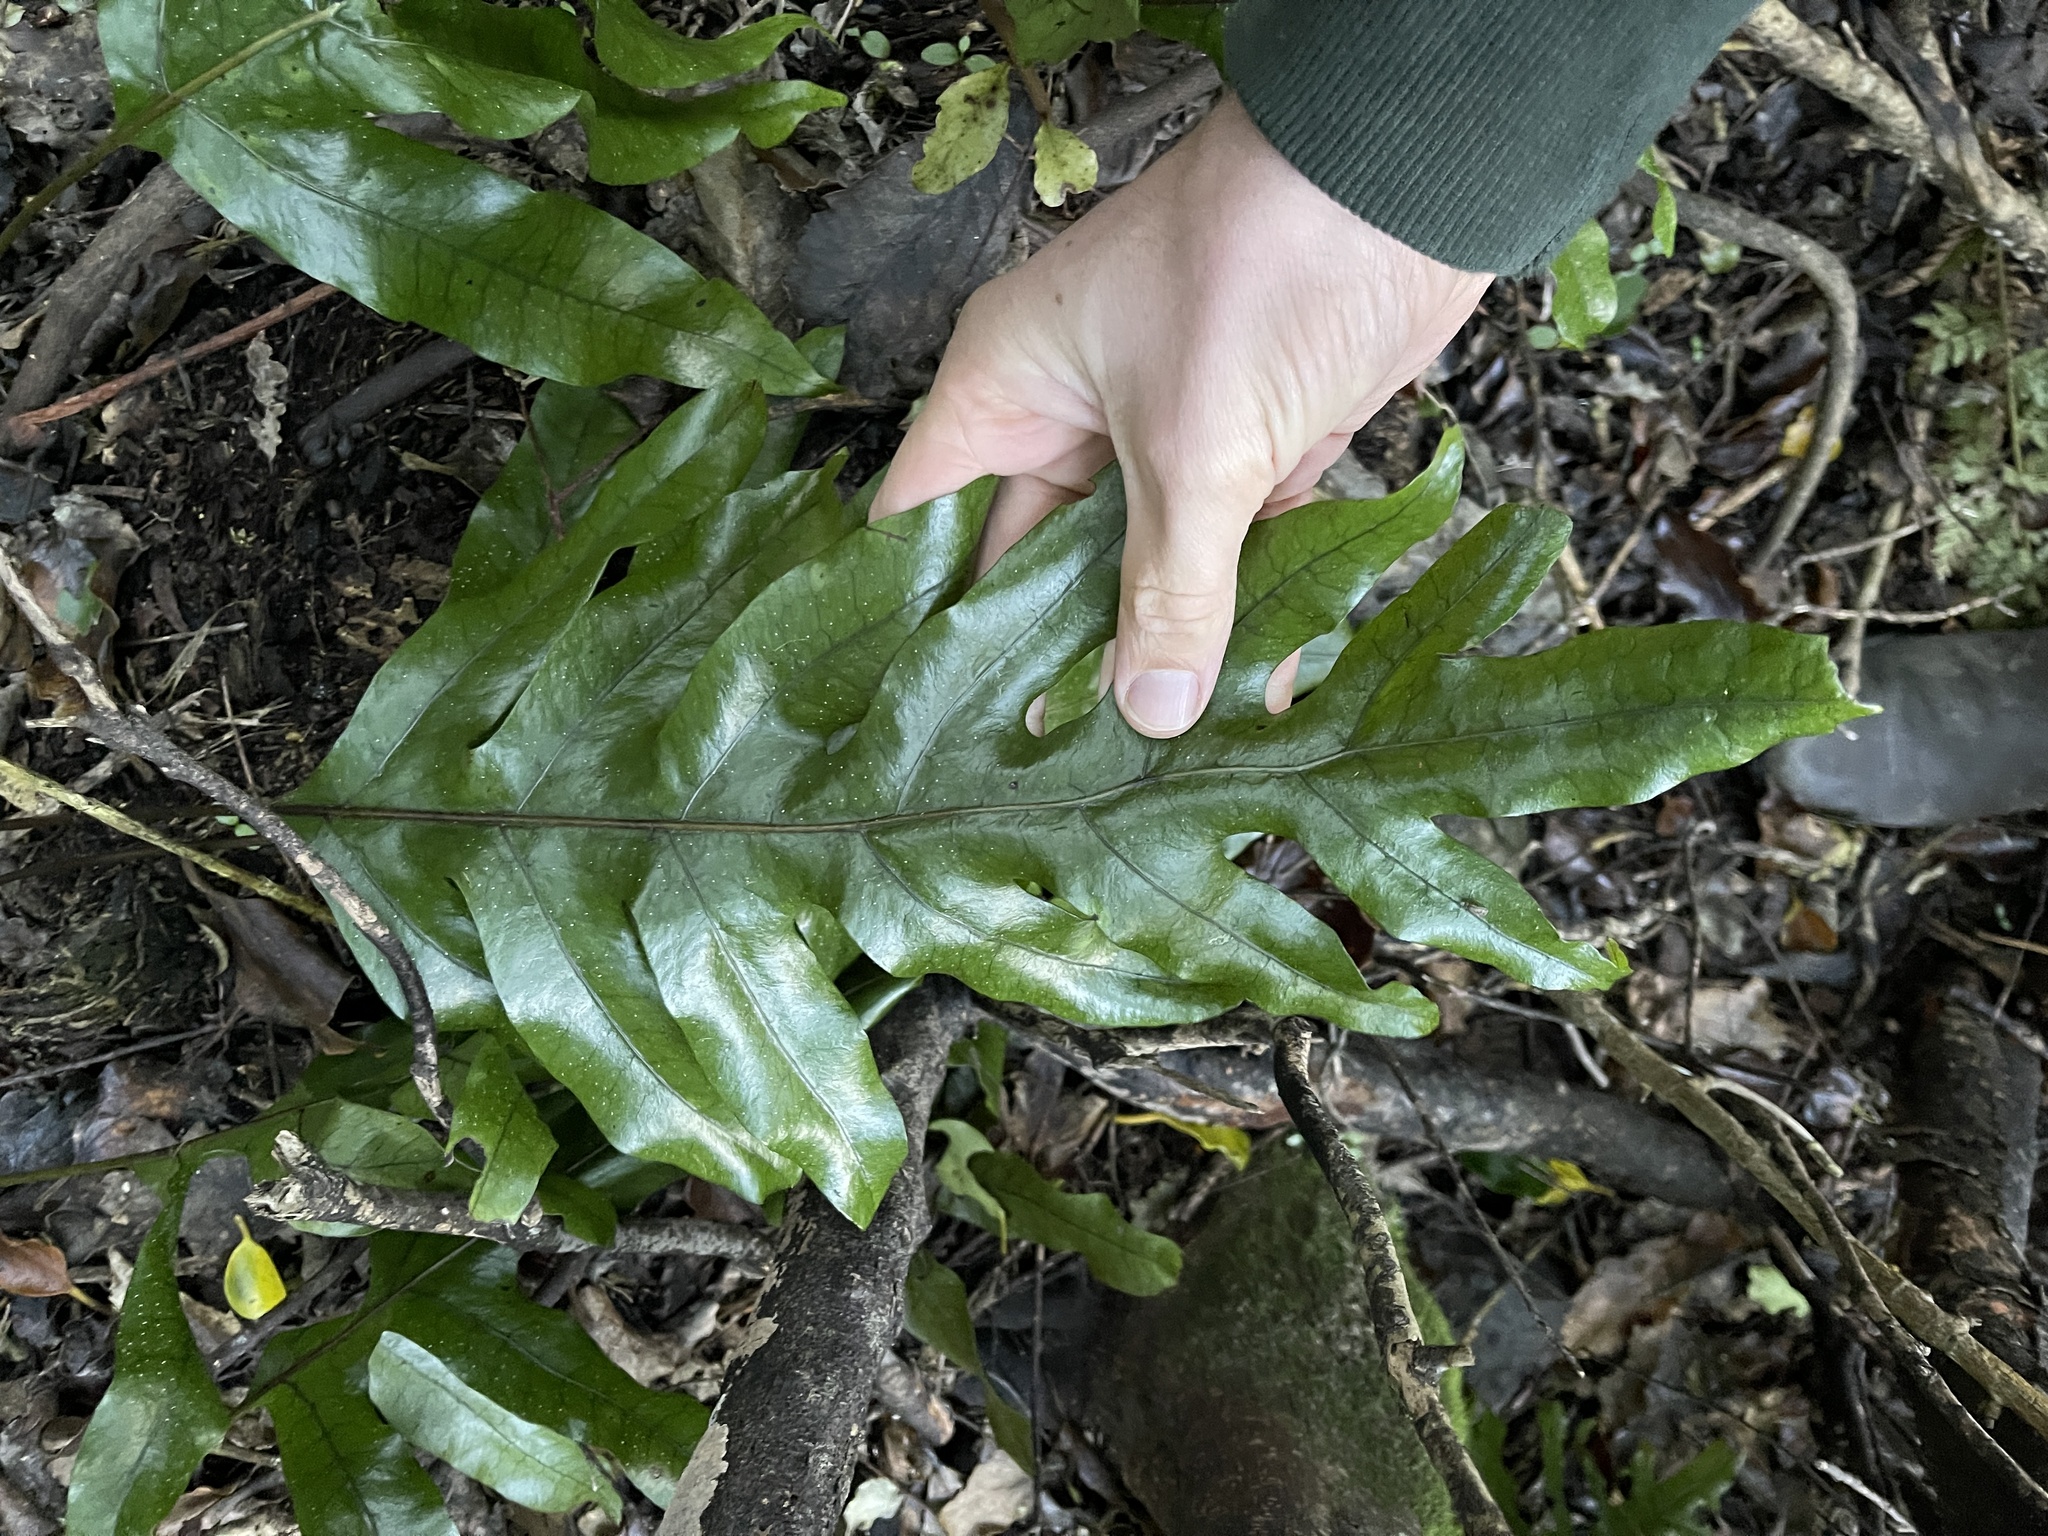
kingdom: Plantae
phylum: Tracheophyta
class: Polypodiopsida
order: Polypodiales
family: Polypodiaceae
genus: Lecanopteris
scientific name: Lecanopteris pustulata
